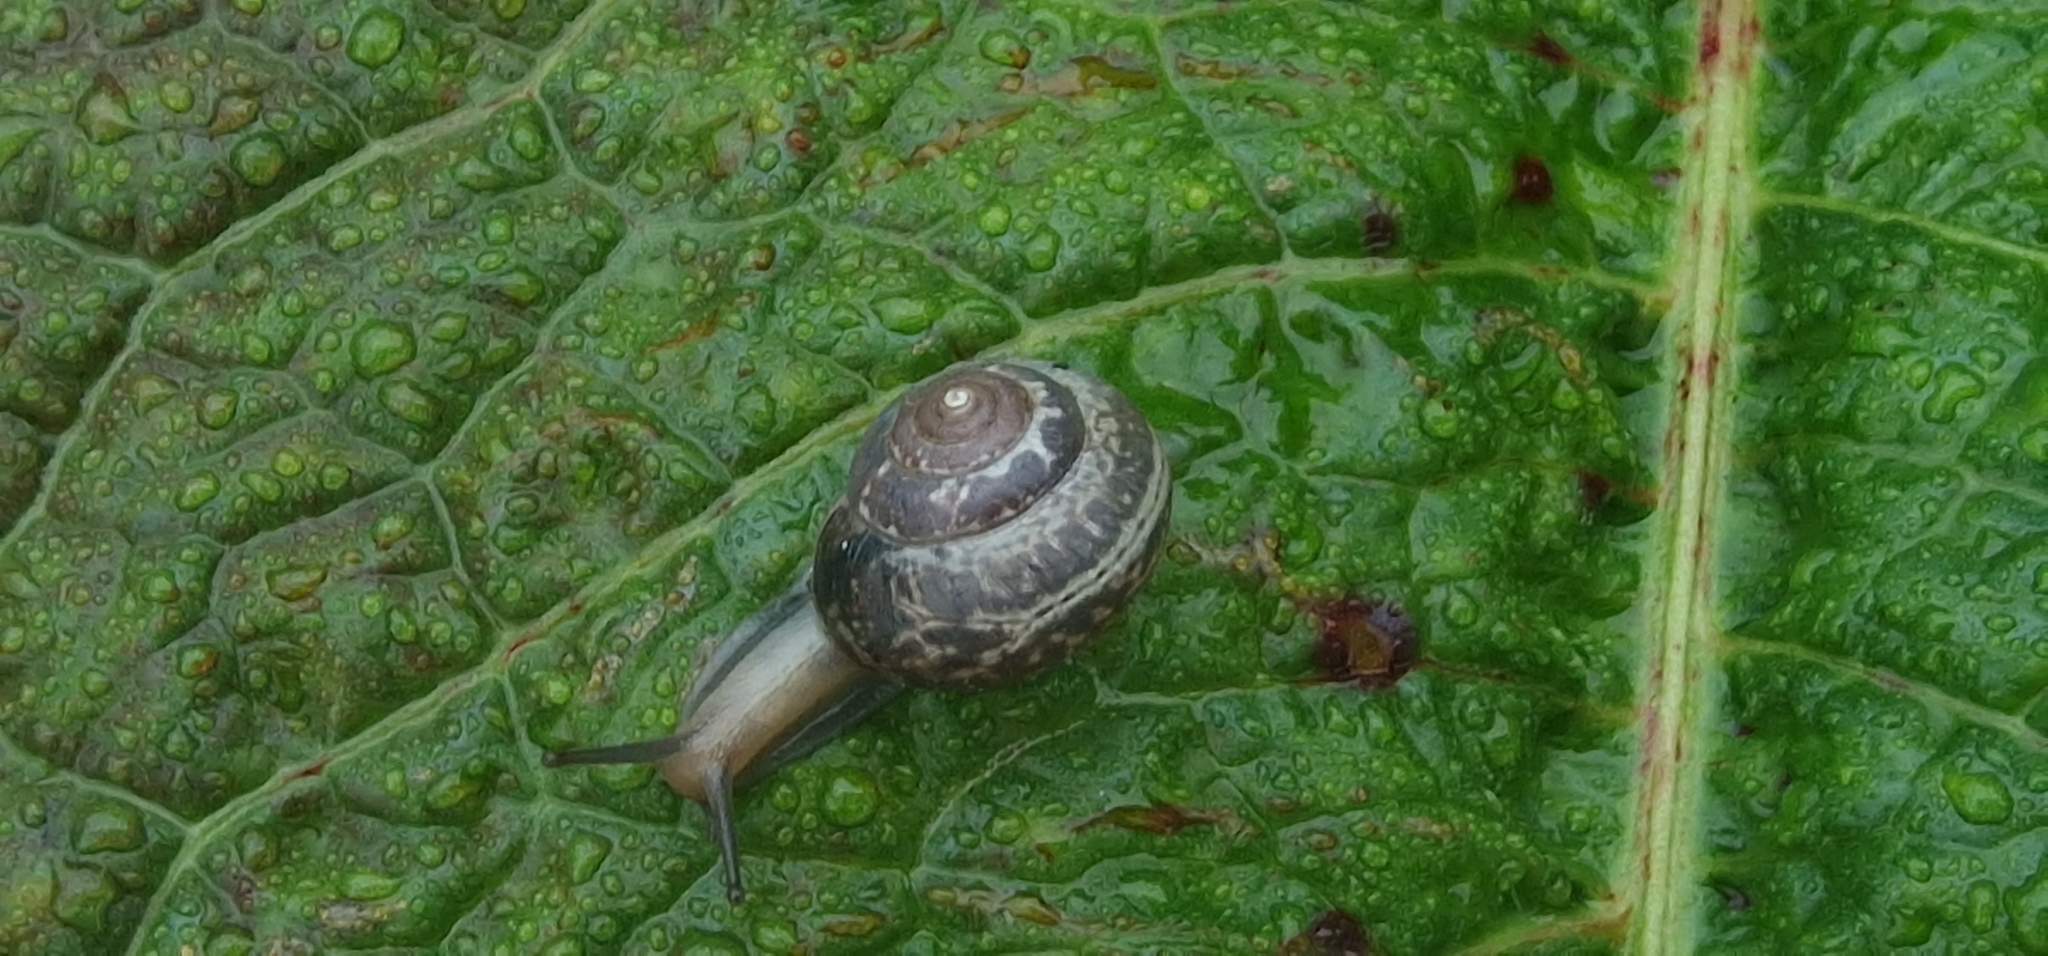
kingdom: Animalia
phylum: Mollusca
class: Gastropoda
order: Stylommatophora
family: Hygromiidae
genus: Monacha
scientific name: Monacha cantiana
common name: Kentish snail
